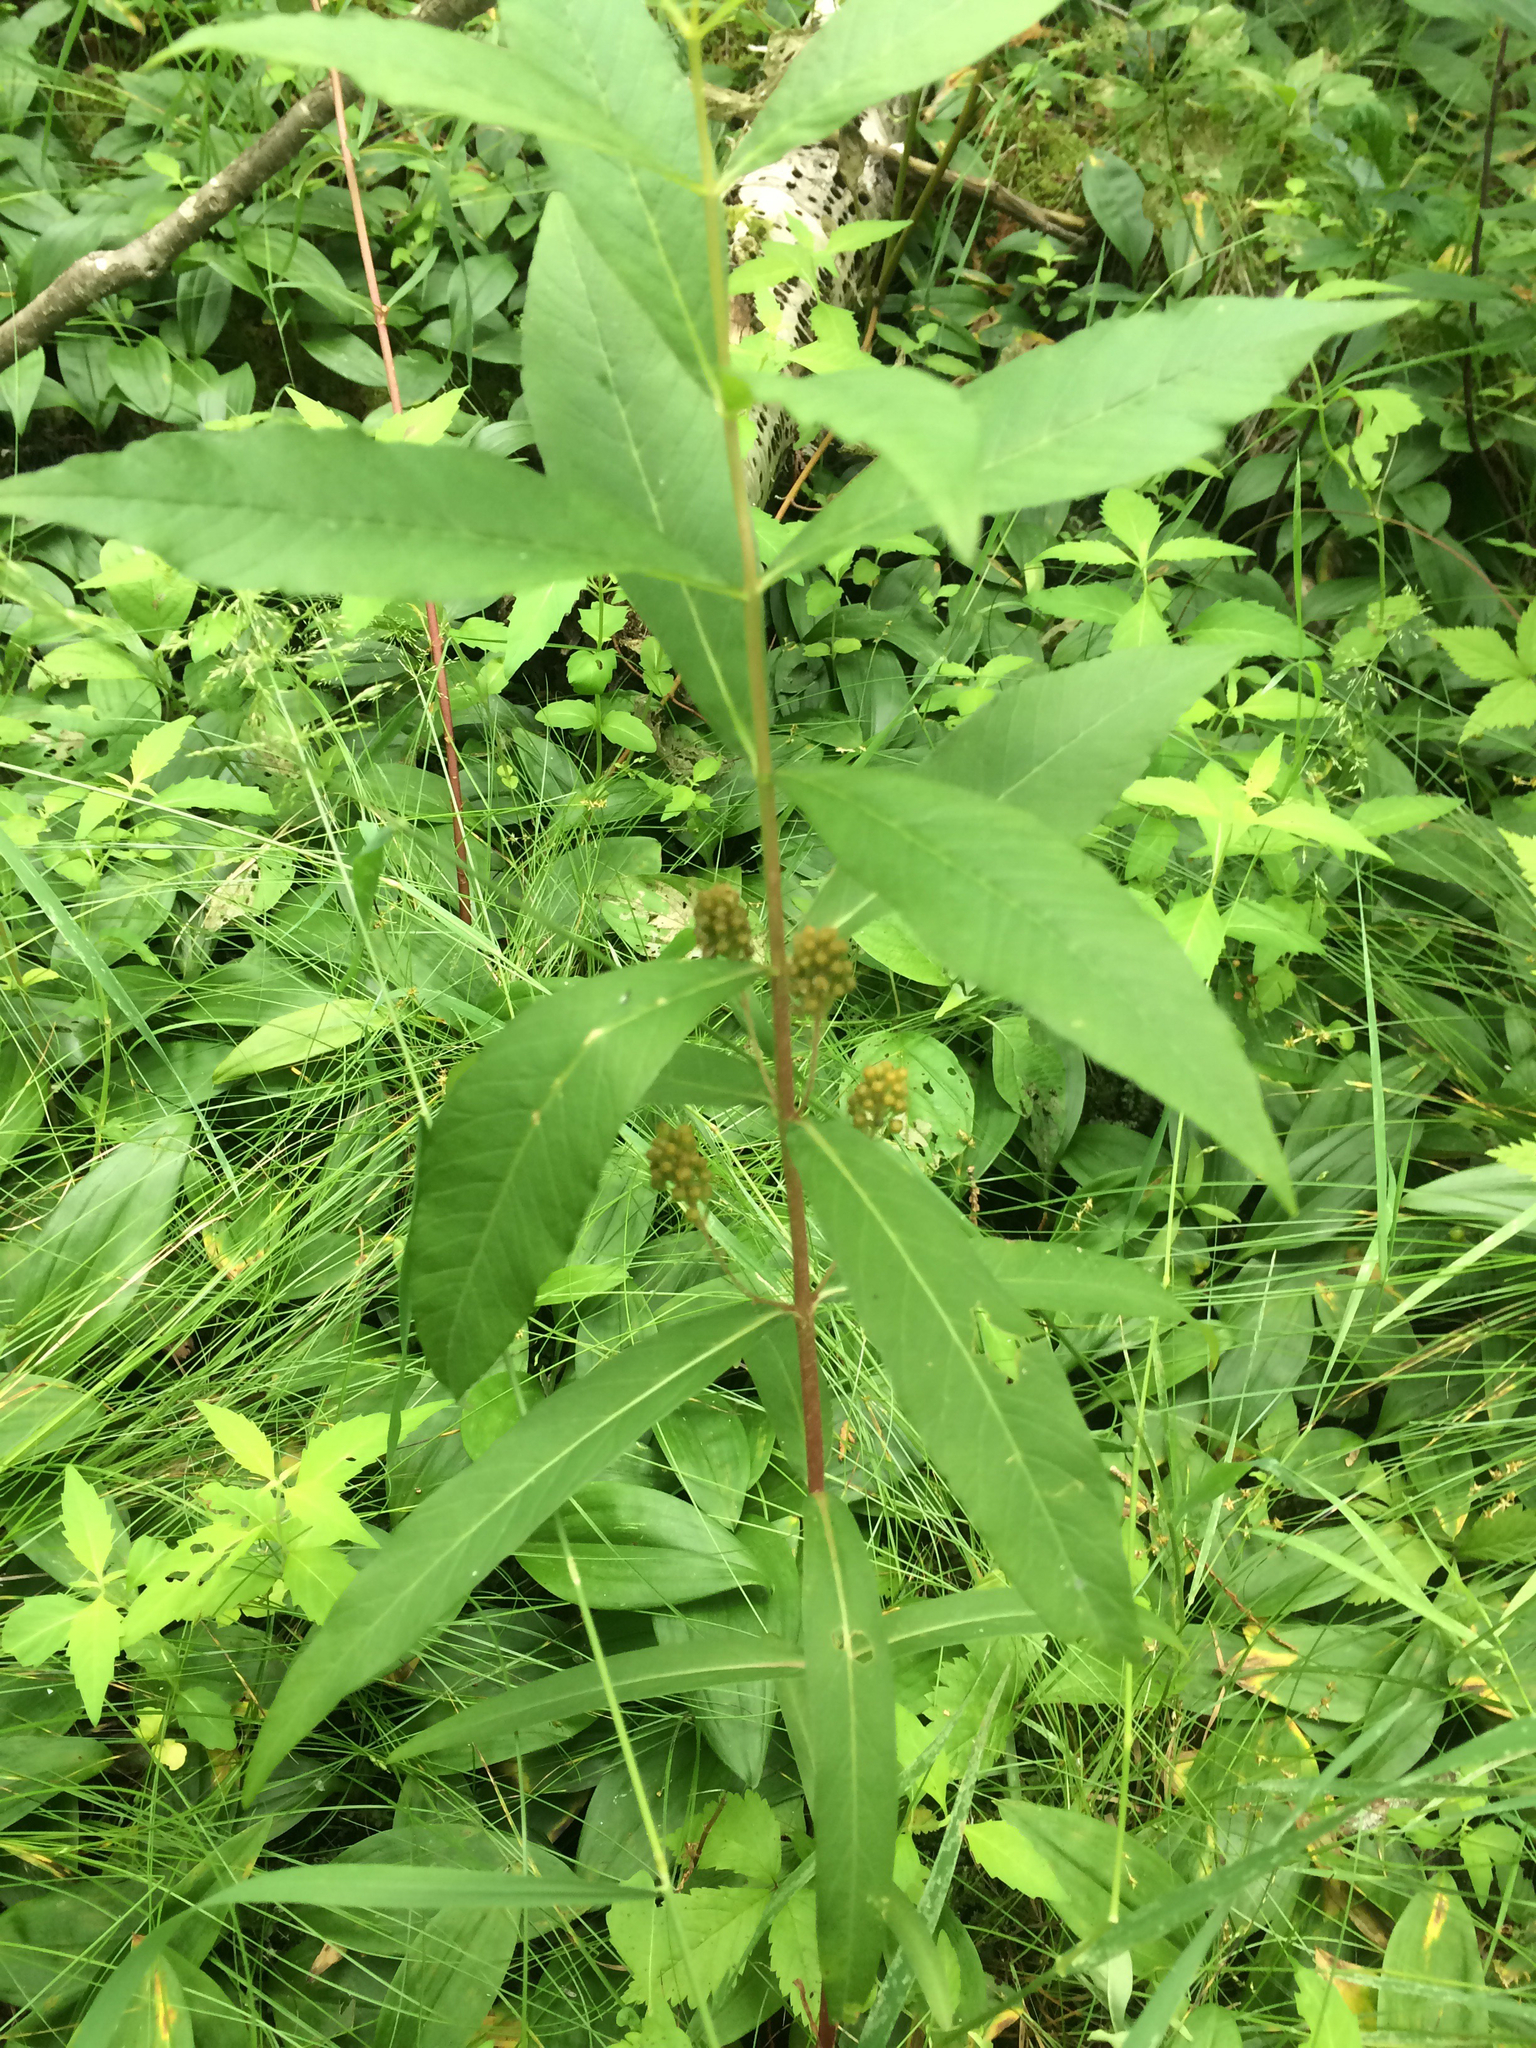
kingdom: Plantae
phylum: Tracheophyta
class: Magnoliopsida
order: Ericales
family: Primulaceae
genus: Lysimachia
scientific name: Lysimachia thyrsiflora
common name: Tufted loosestrife
